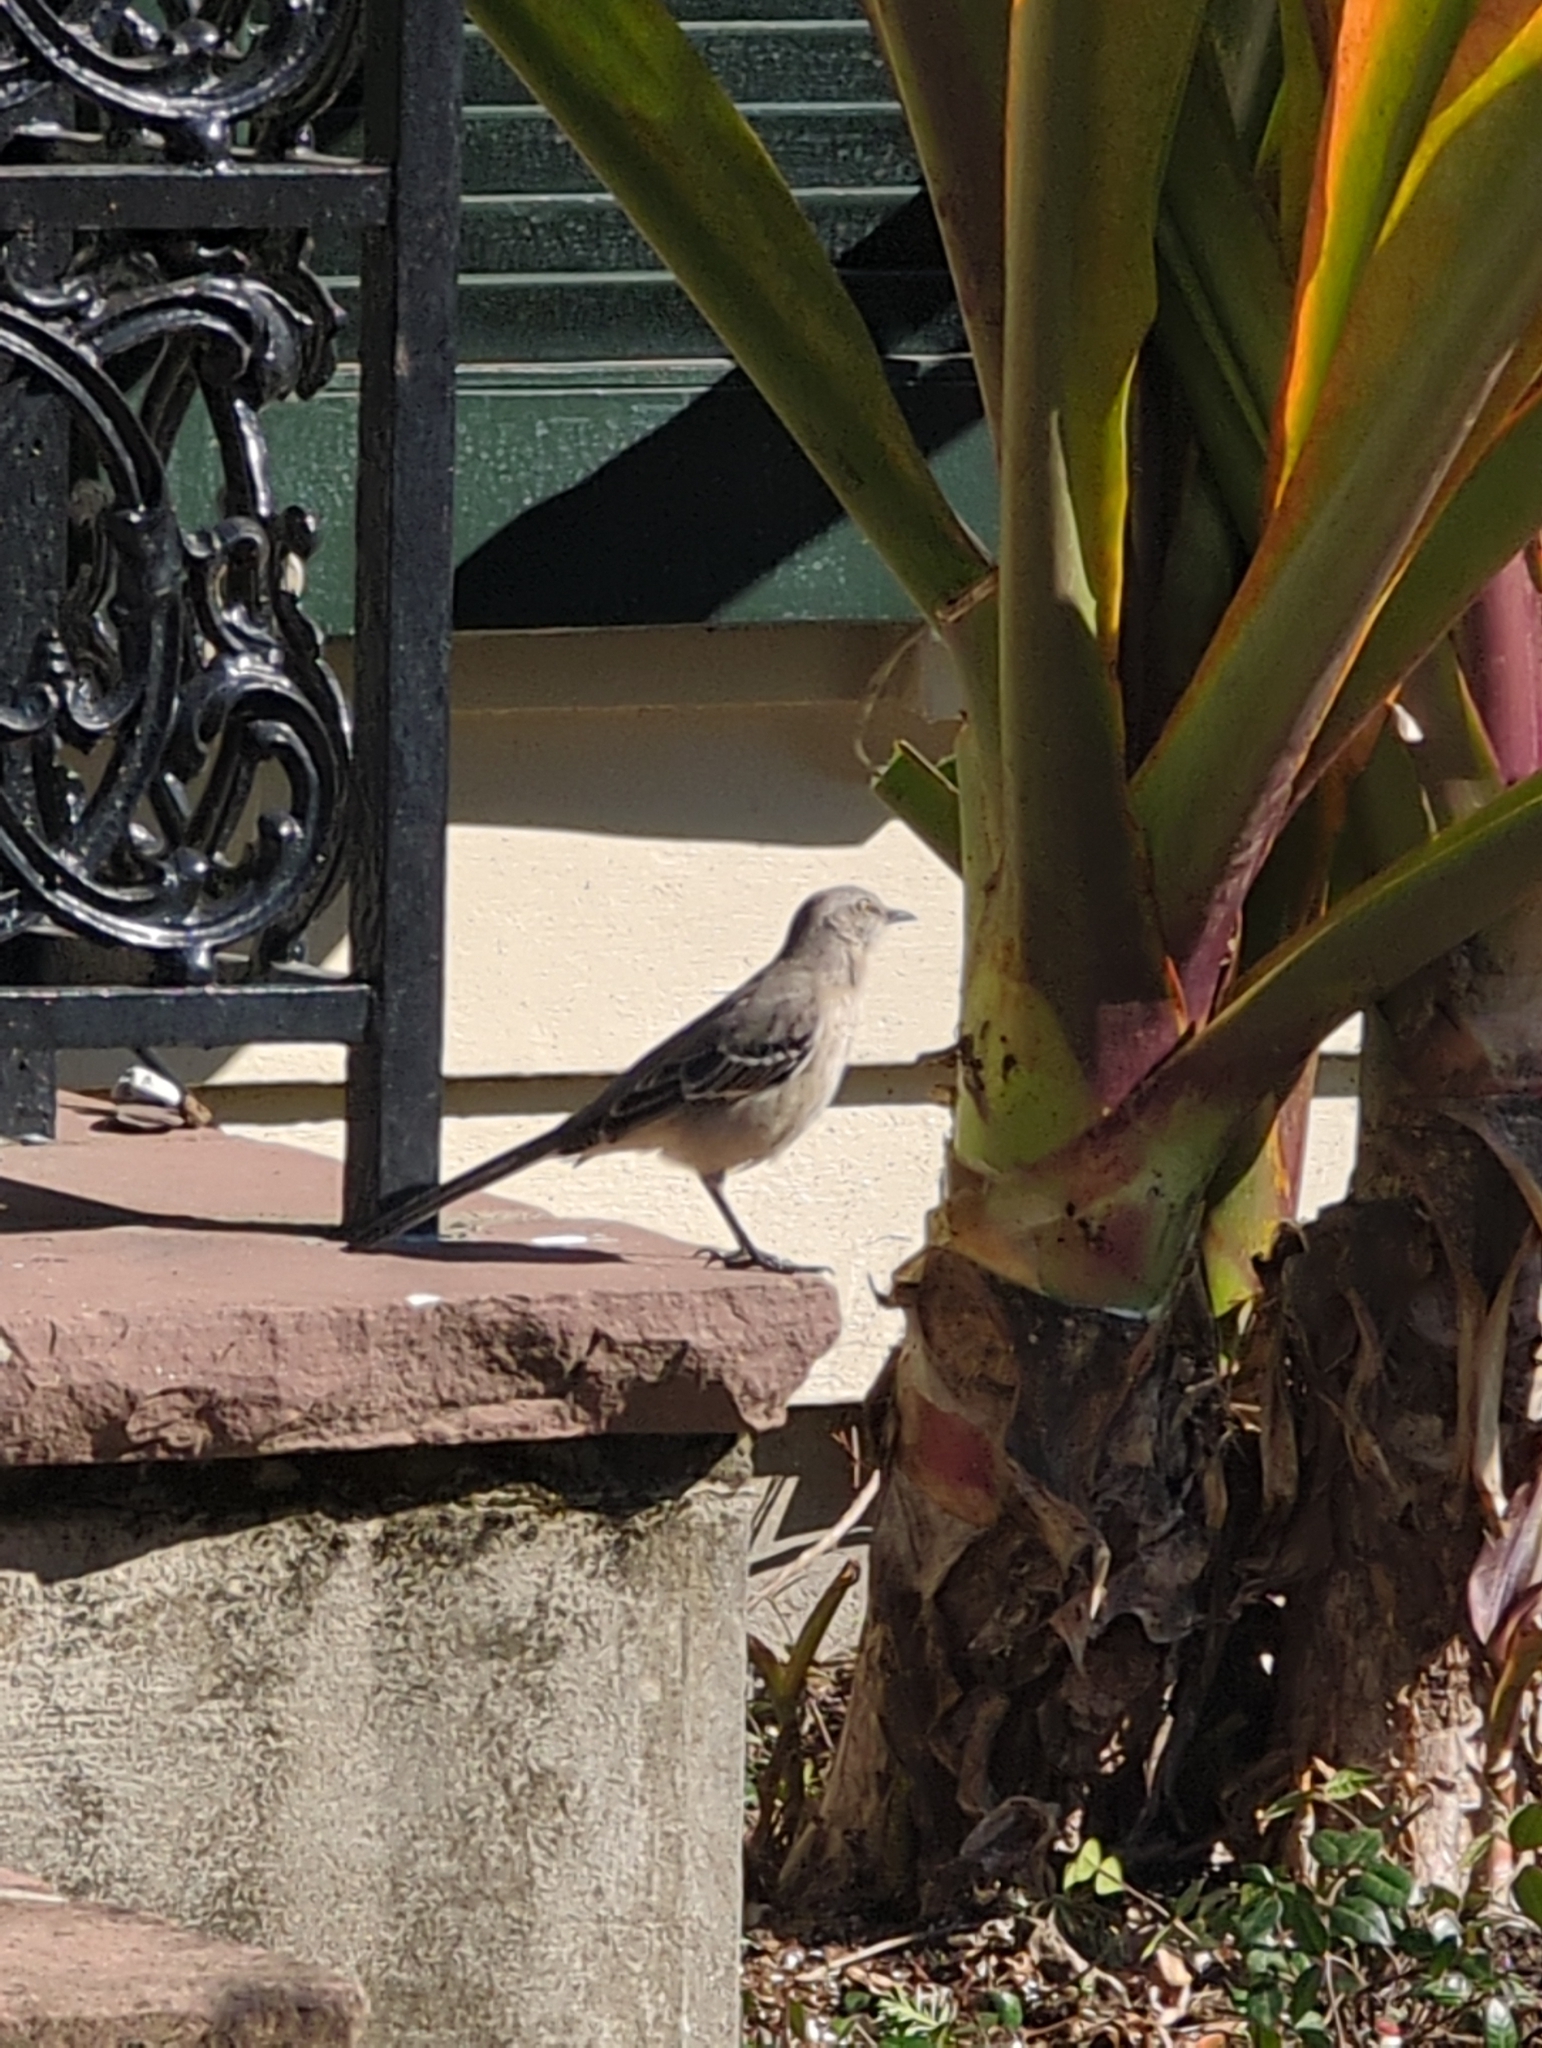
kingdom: Animalia
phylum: Chordata
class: Aves
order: Passeriformes
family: Mimidae
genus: Mimus
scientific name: Mimus polyglottos
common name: Northern mockingbird
